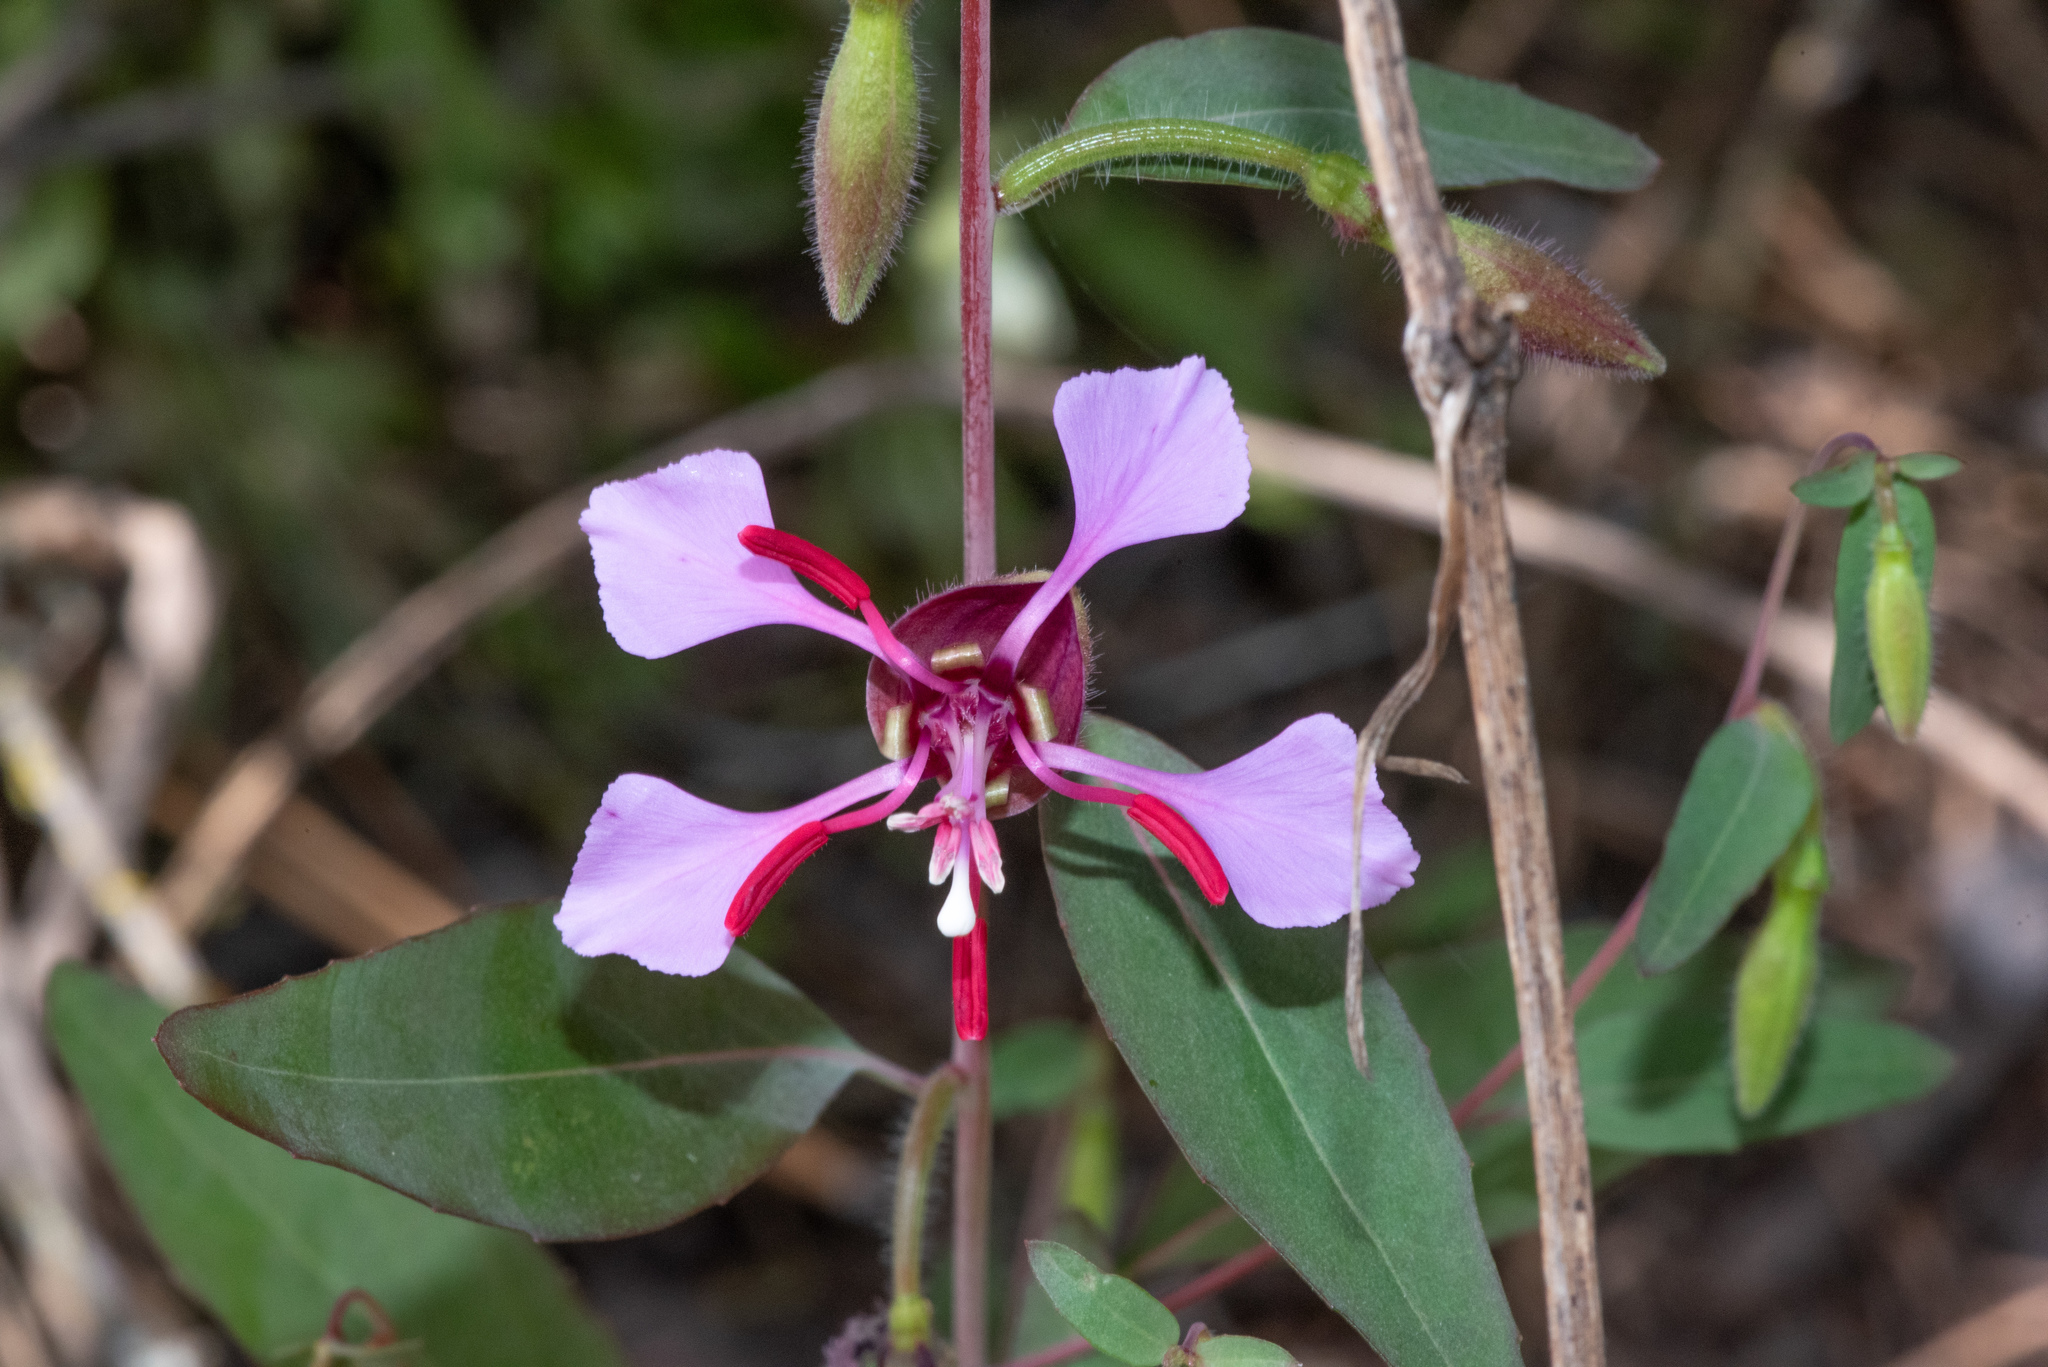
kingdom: Plantae
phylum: Tracheophyta
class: Magnoliopsida
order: Myrtales
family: Onagraceae
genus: Clarkia
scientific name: Clarkia unguiculata
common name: Clarkia
